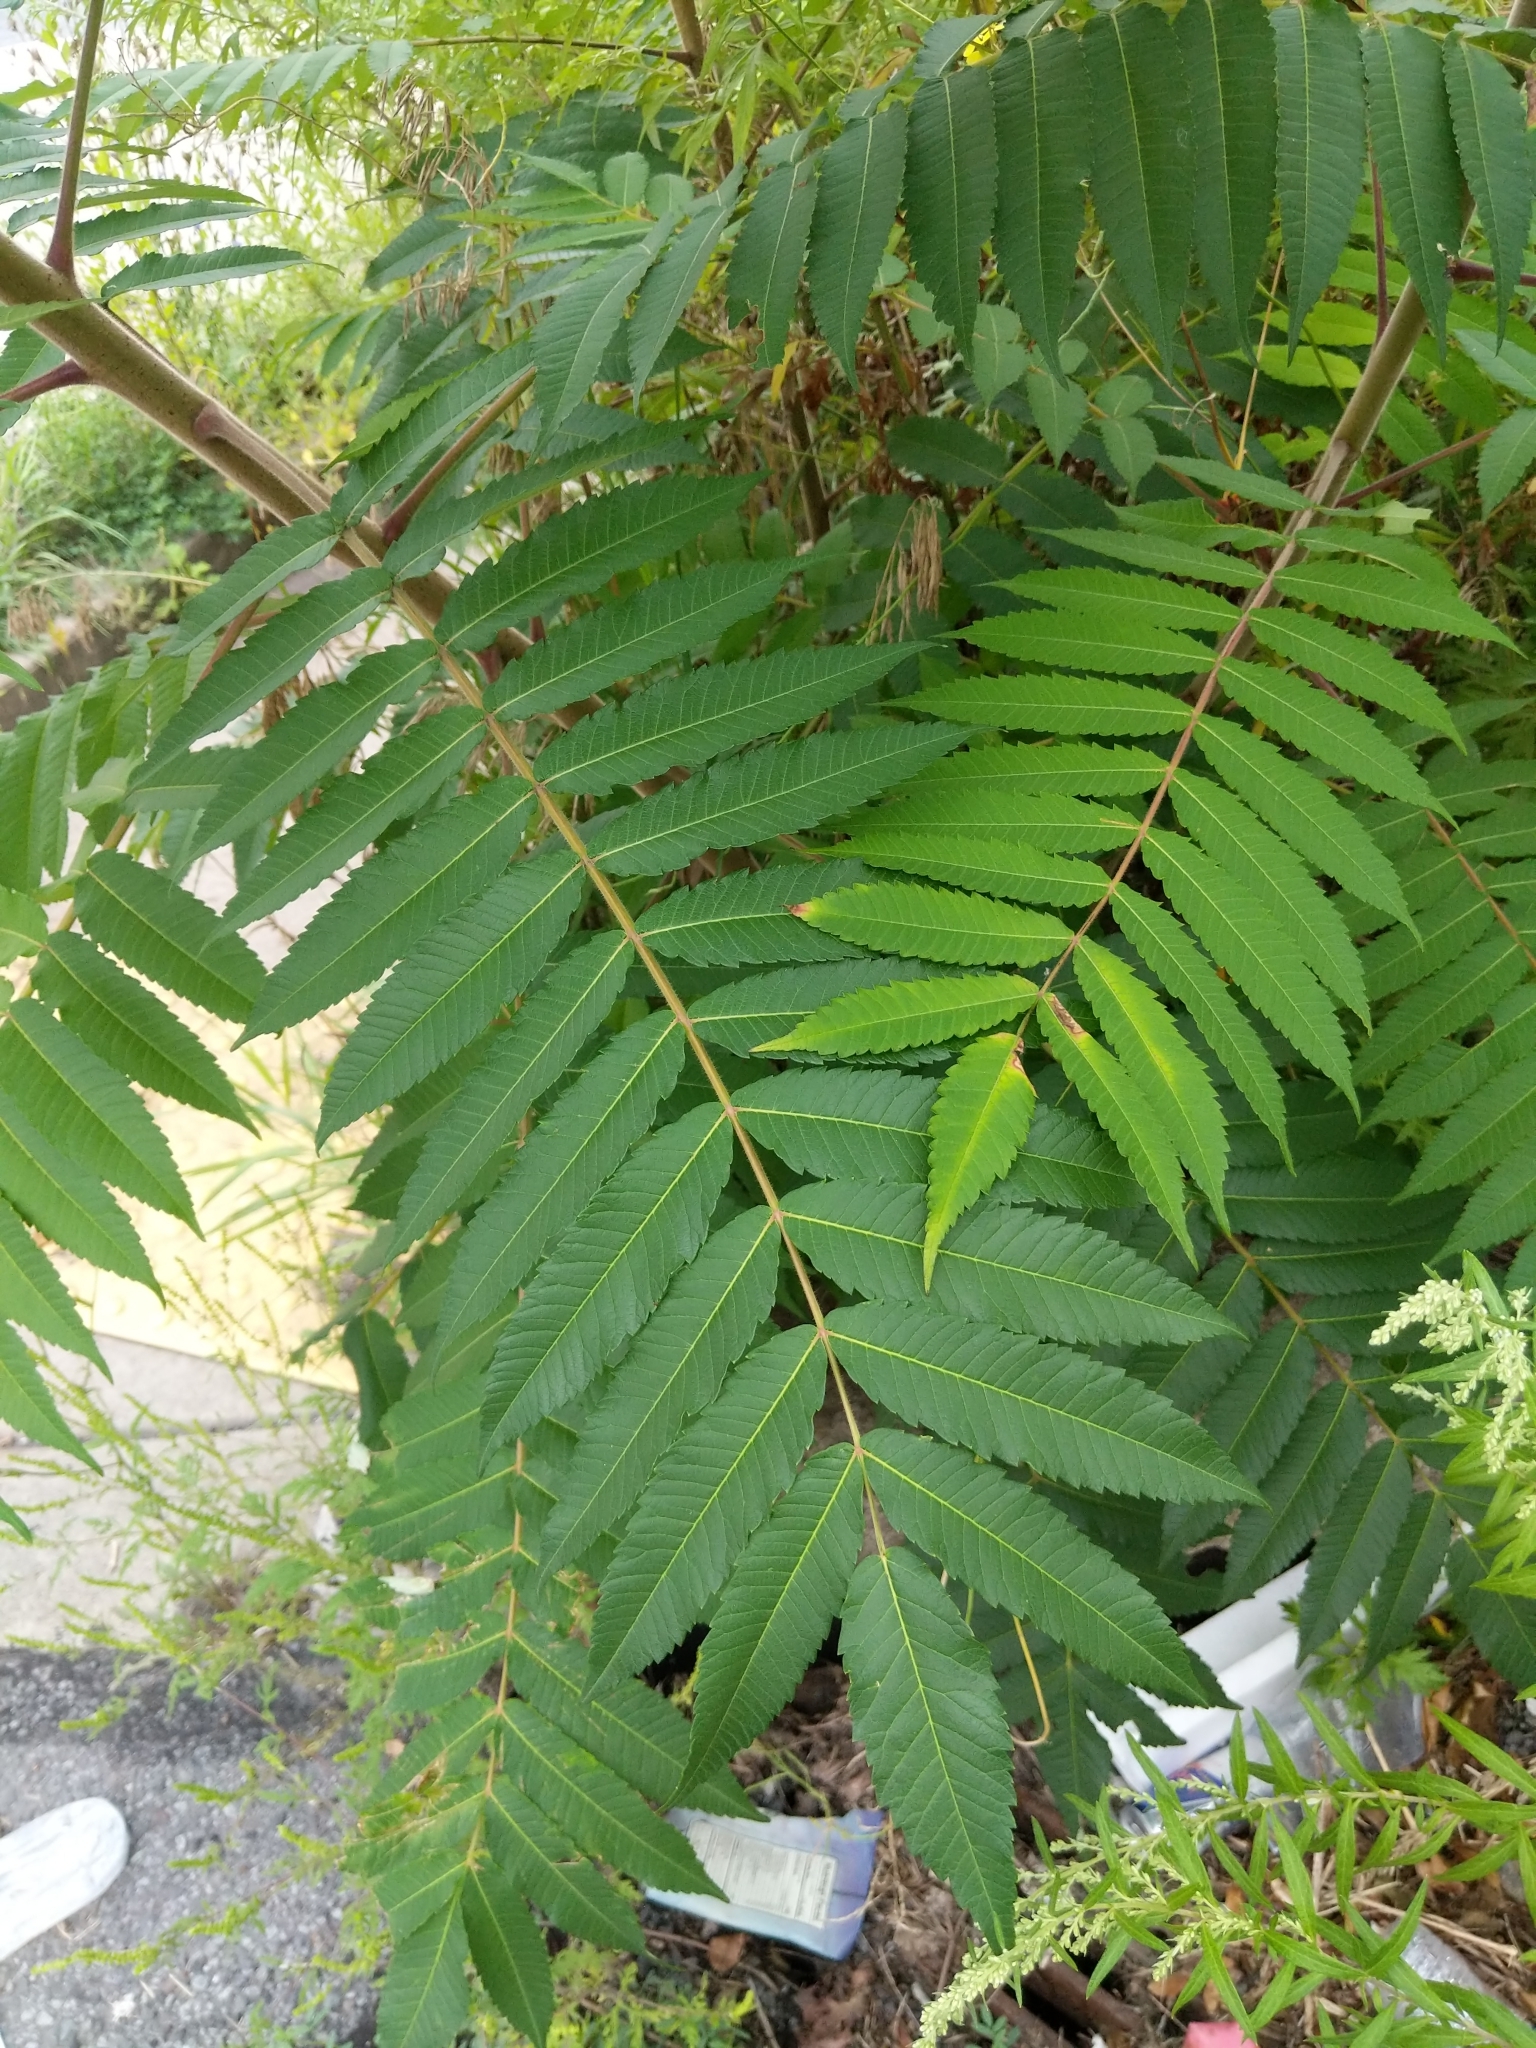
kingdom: Plantae
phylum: Tracheophyta
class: Magnoliopsida
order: Sapindales
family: Anacardiaceae
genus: Rhus
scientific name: Rhus typhina
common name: Staghorn sumac
